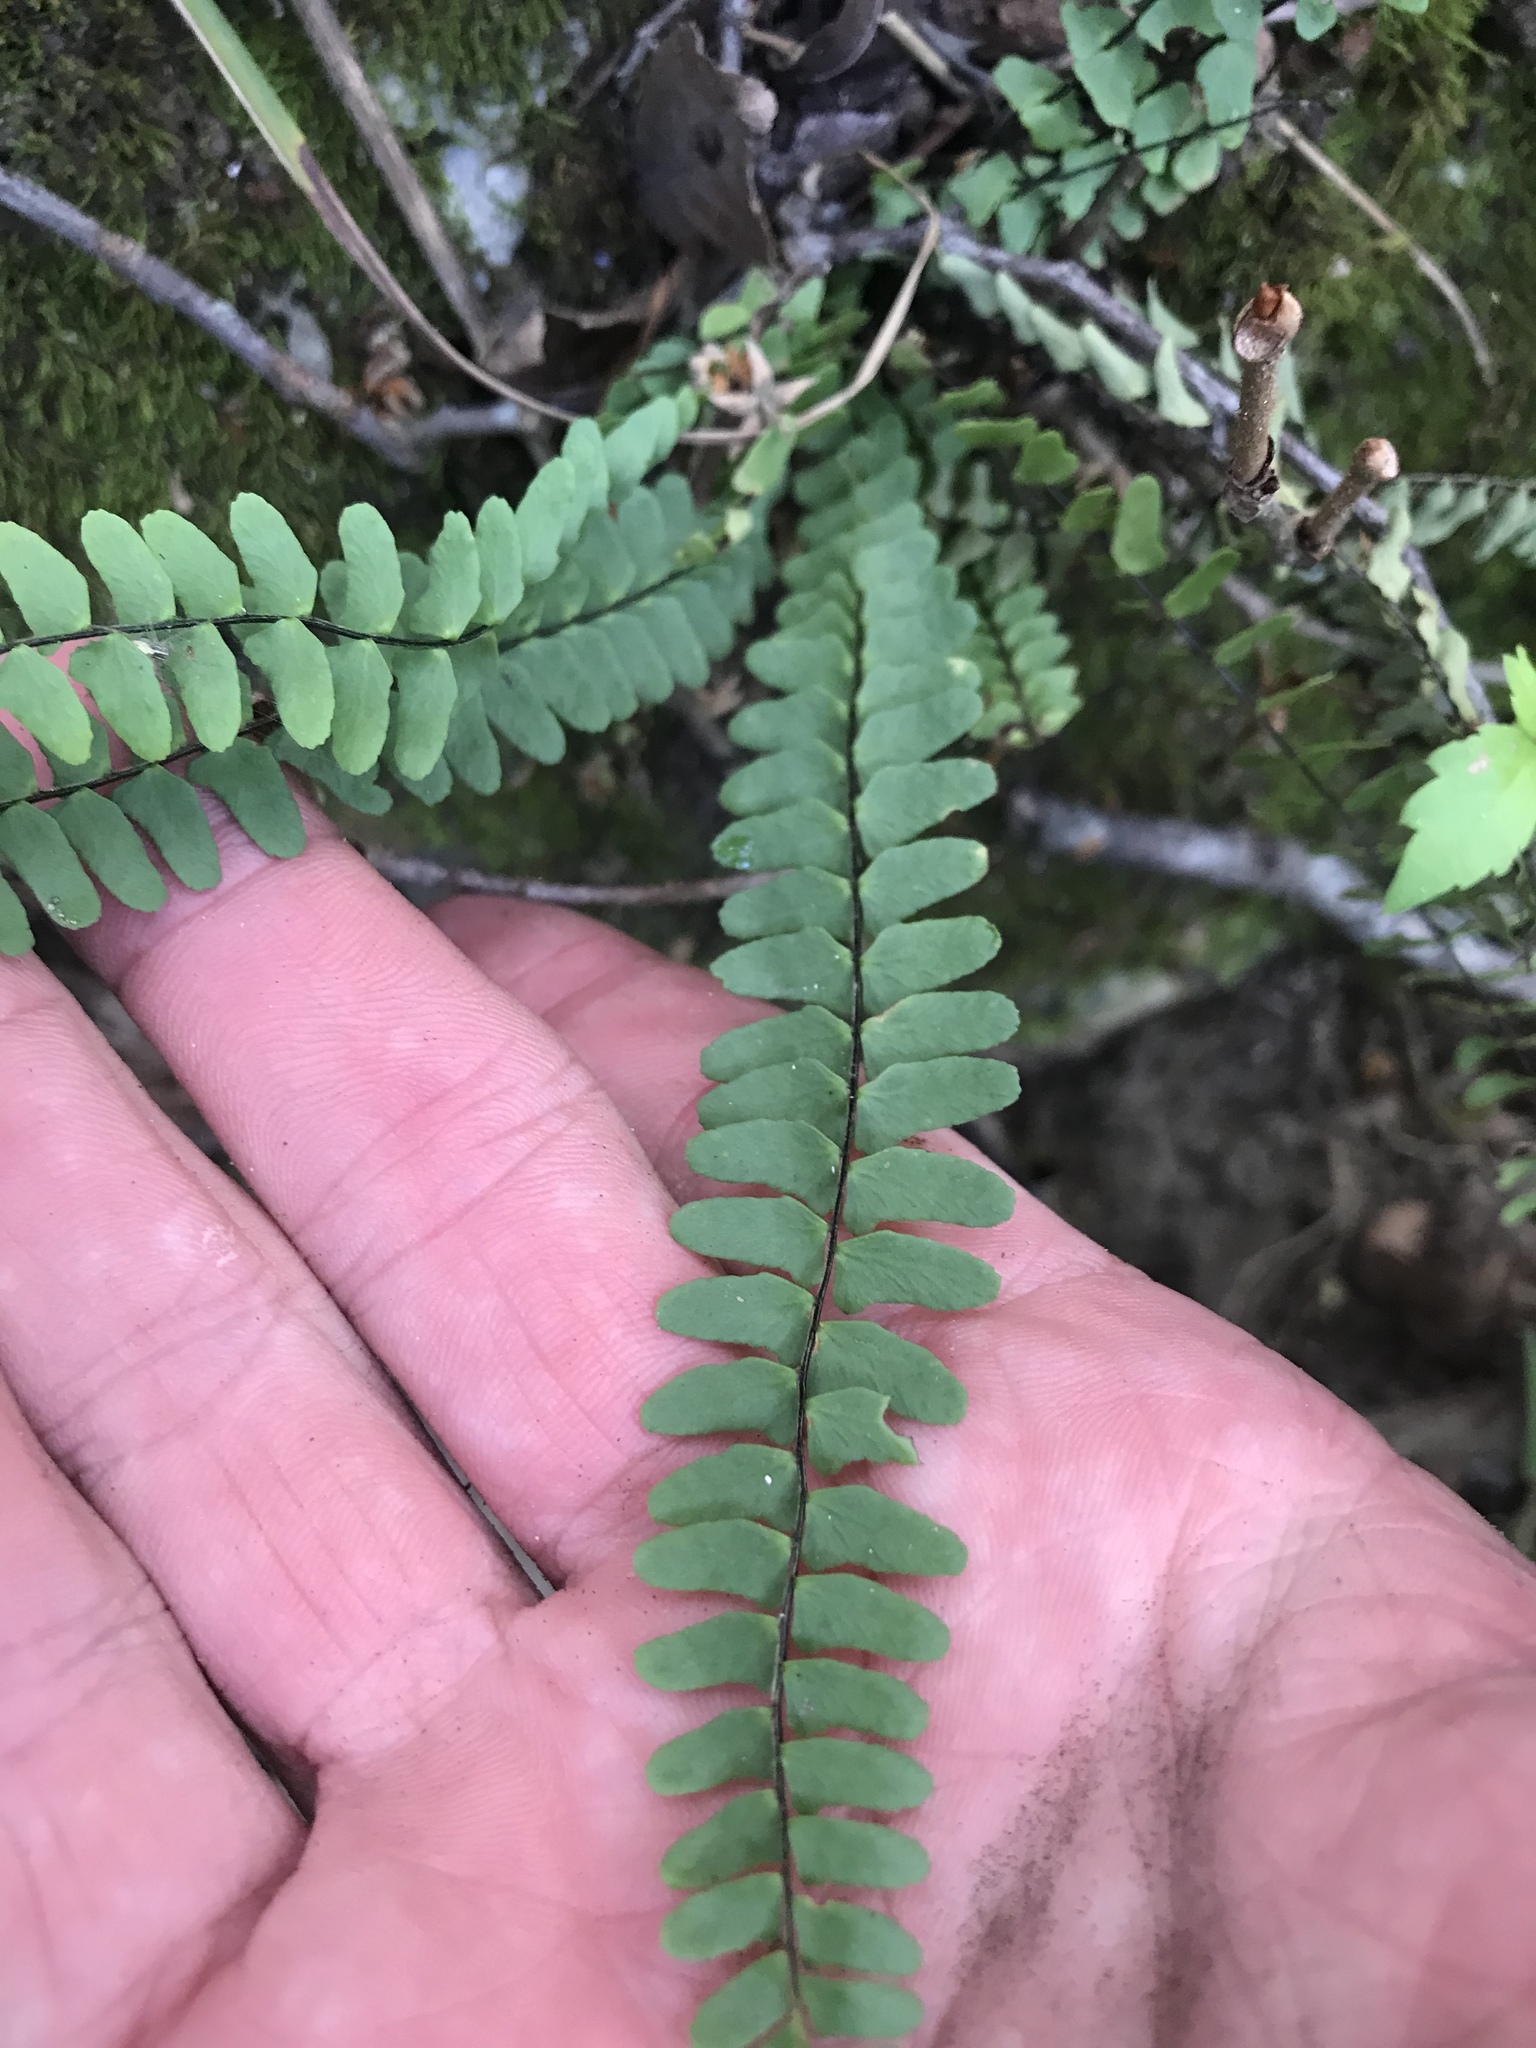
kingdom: Plantae
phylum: Tracheophyta
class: Polypodiopsida
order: Polypodiales
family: Aspleniaceae
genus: Asplenium
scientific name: Asplenium resiliens
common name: Blackstem spleenwort
